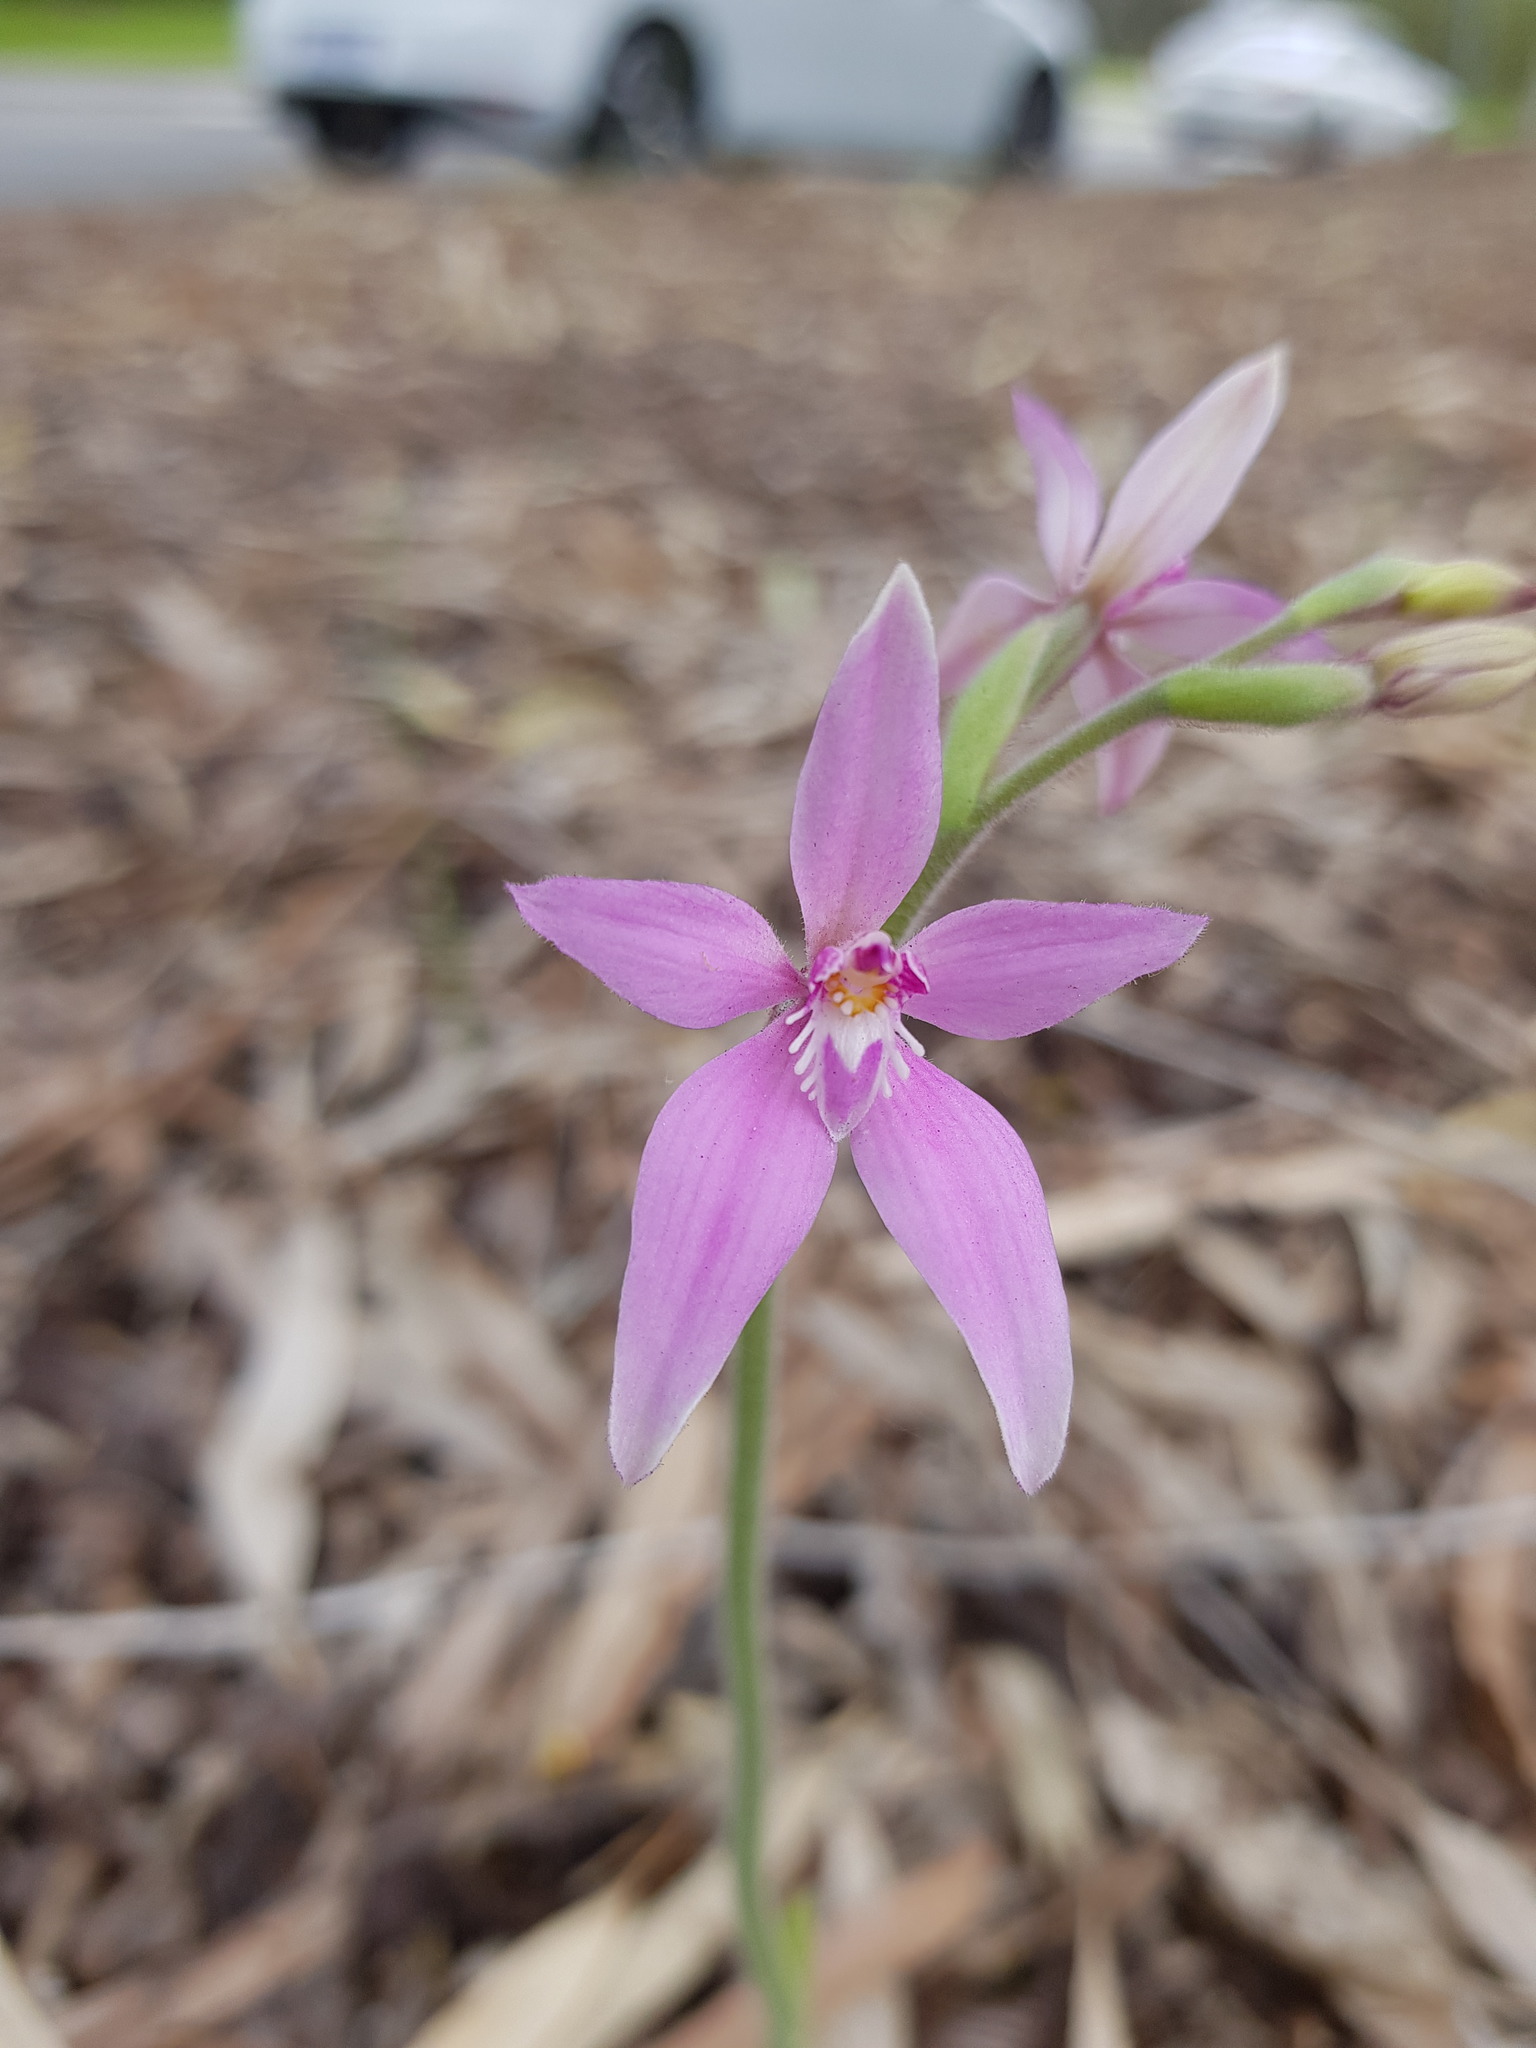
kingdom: Plantae
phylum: Tracheophyta
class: Liliopsida
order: Asparagales
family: Orchidaceae
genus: Caladenia
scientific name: Caladenia latifolia
